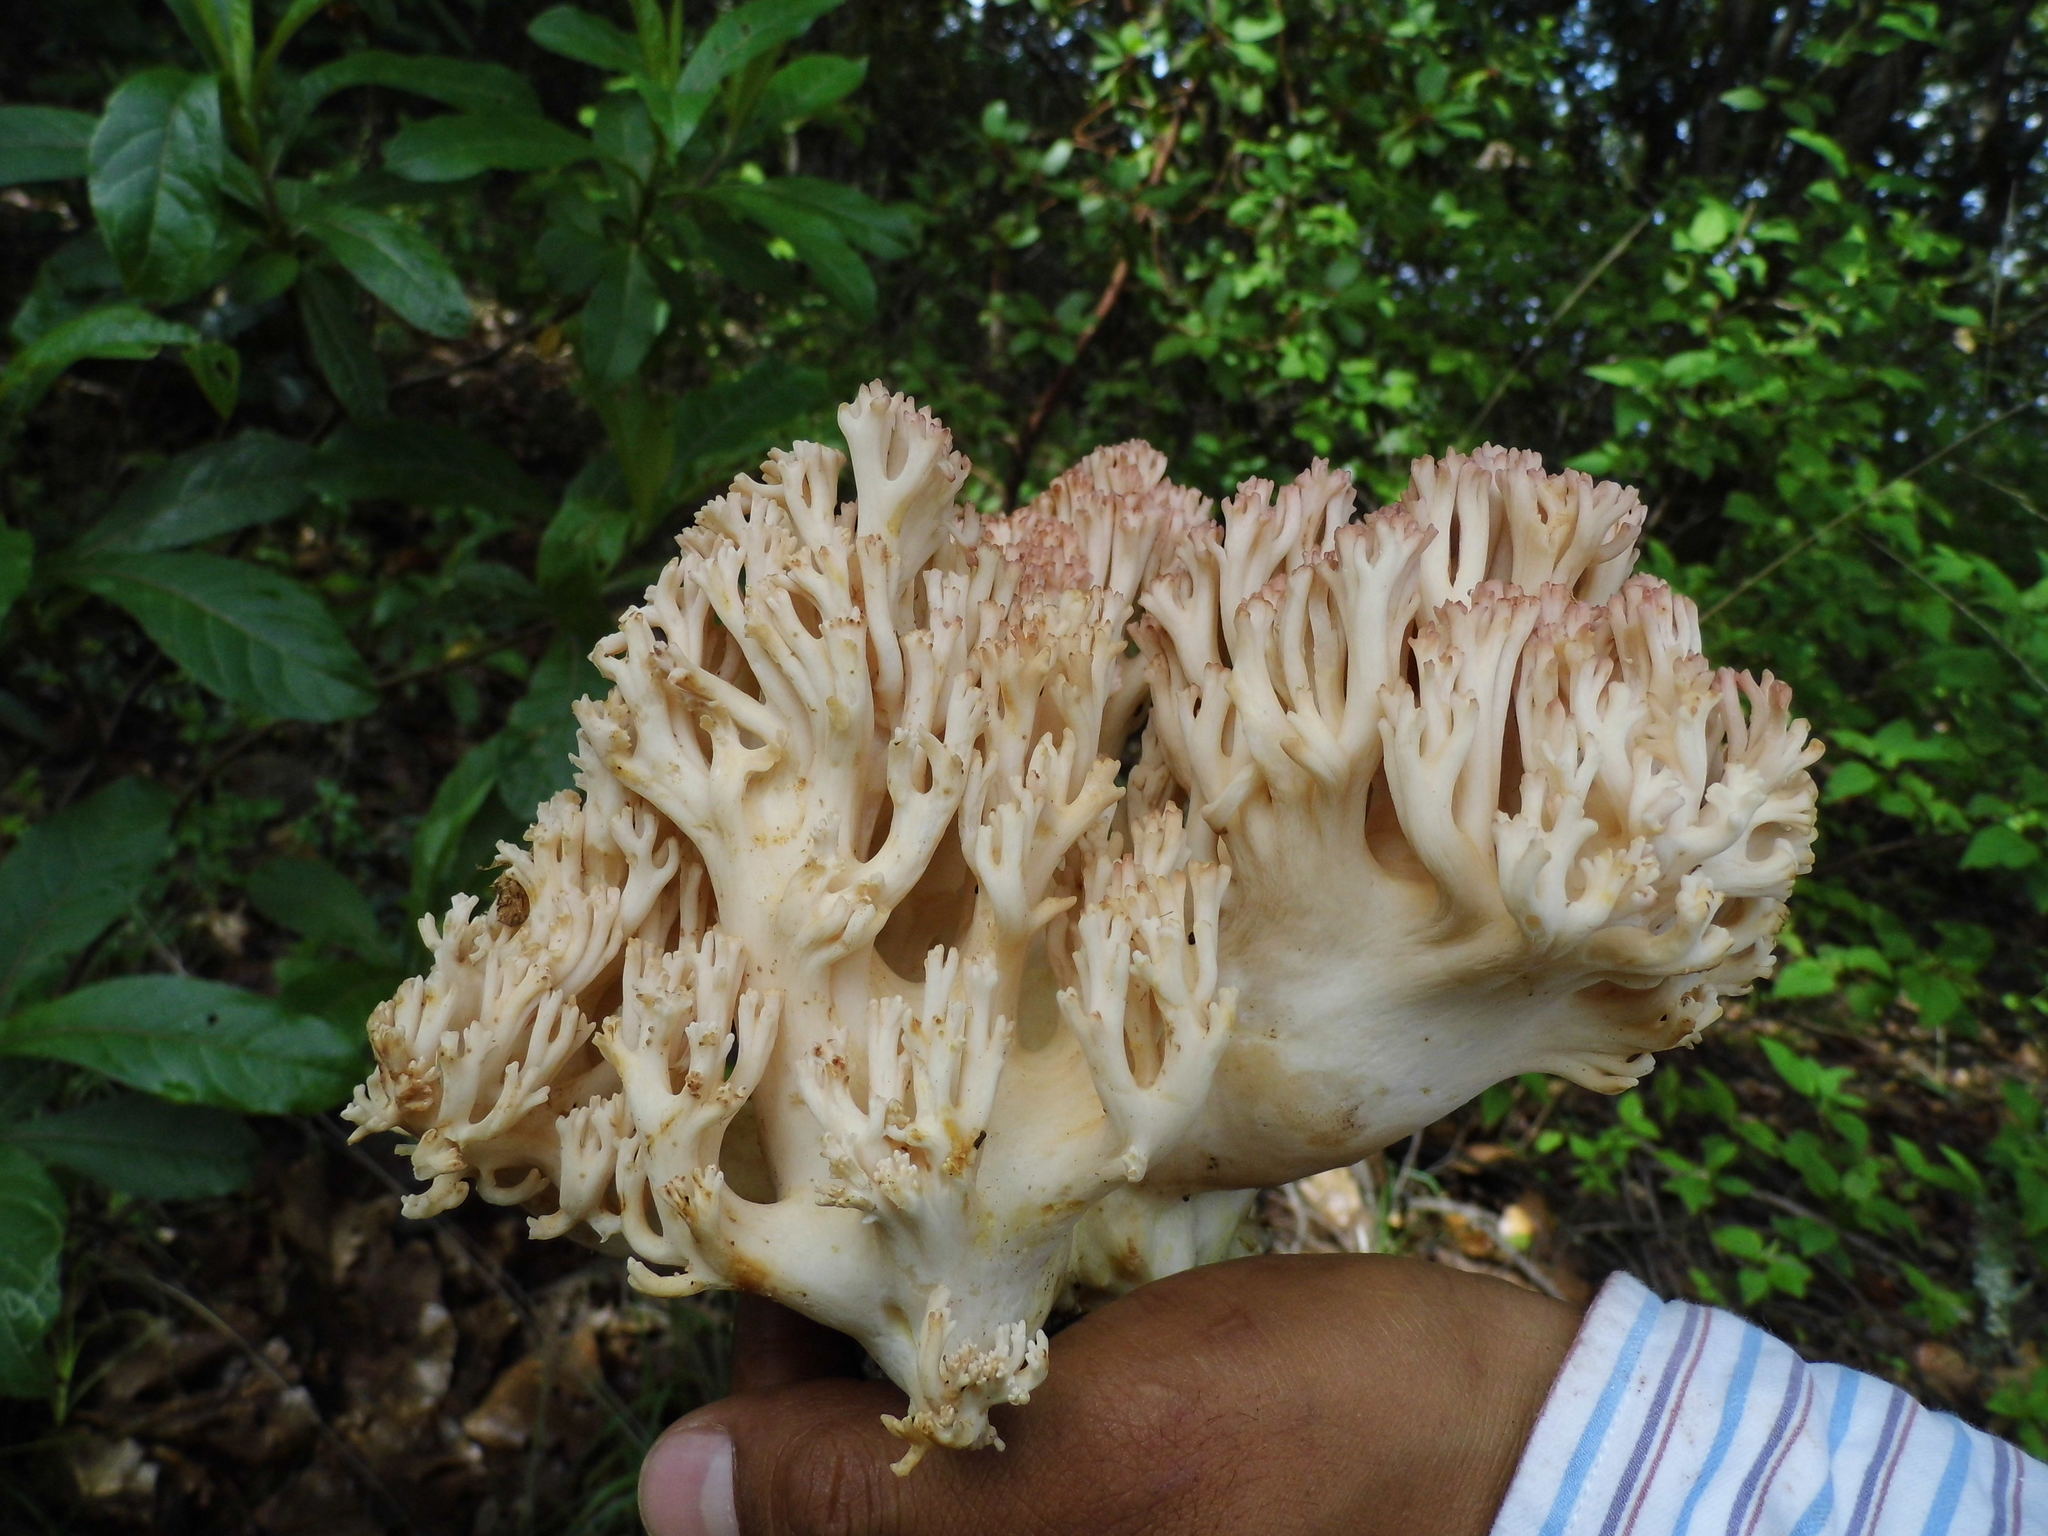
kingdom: Fungi
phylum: Basidiomycota
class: Agaricomycetes
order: Gomphales
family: Gomphaceae
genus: Ramaria
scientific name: Ramaria botrytoides
